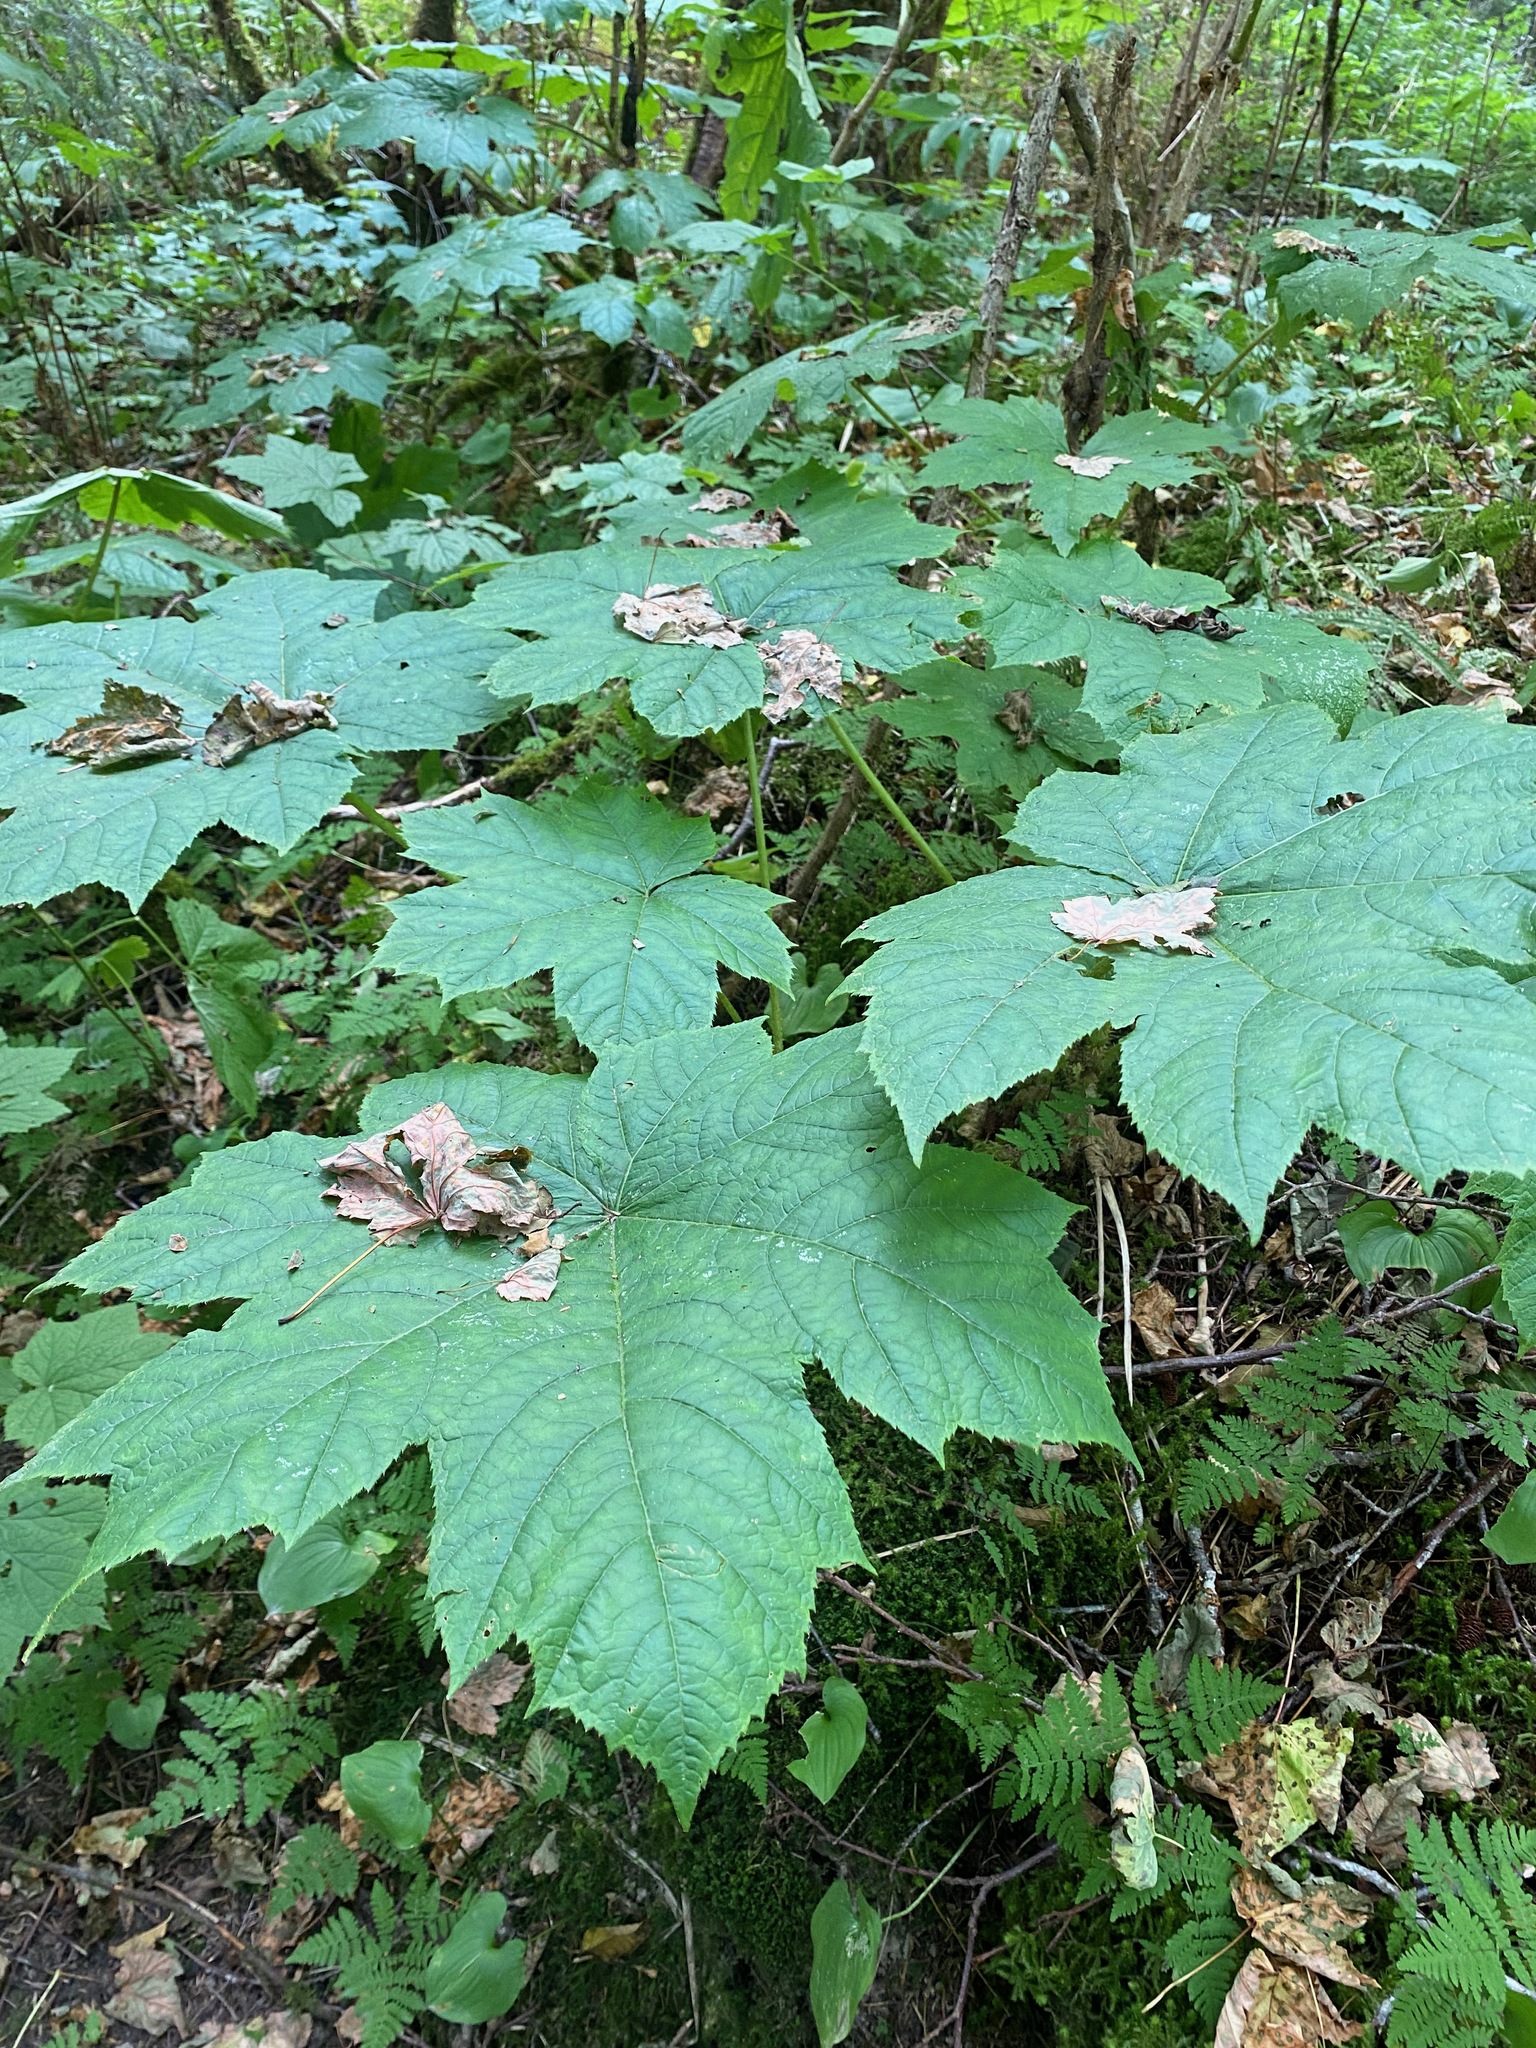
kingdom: Plantae
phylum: Tracheophyta
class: Magnoliopsida
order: Apiales
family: Araliaceae
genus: Oplopanax
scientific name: Oplopanax horridus
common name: Devil's walking-stick
